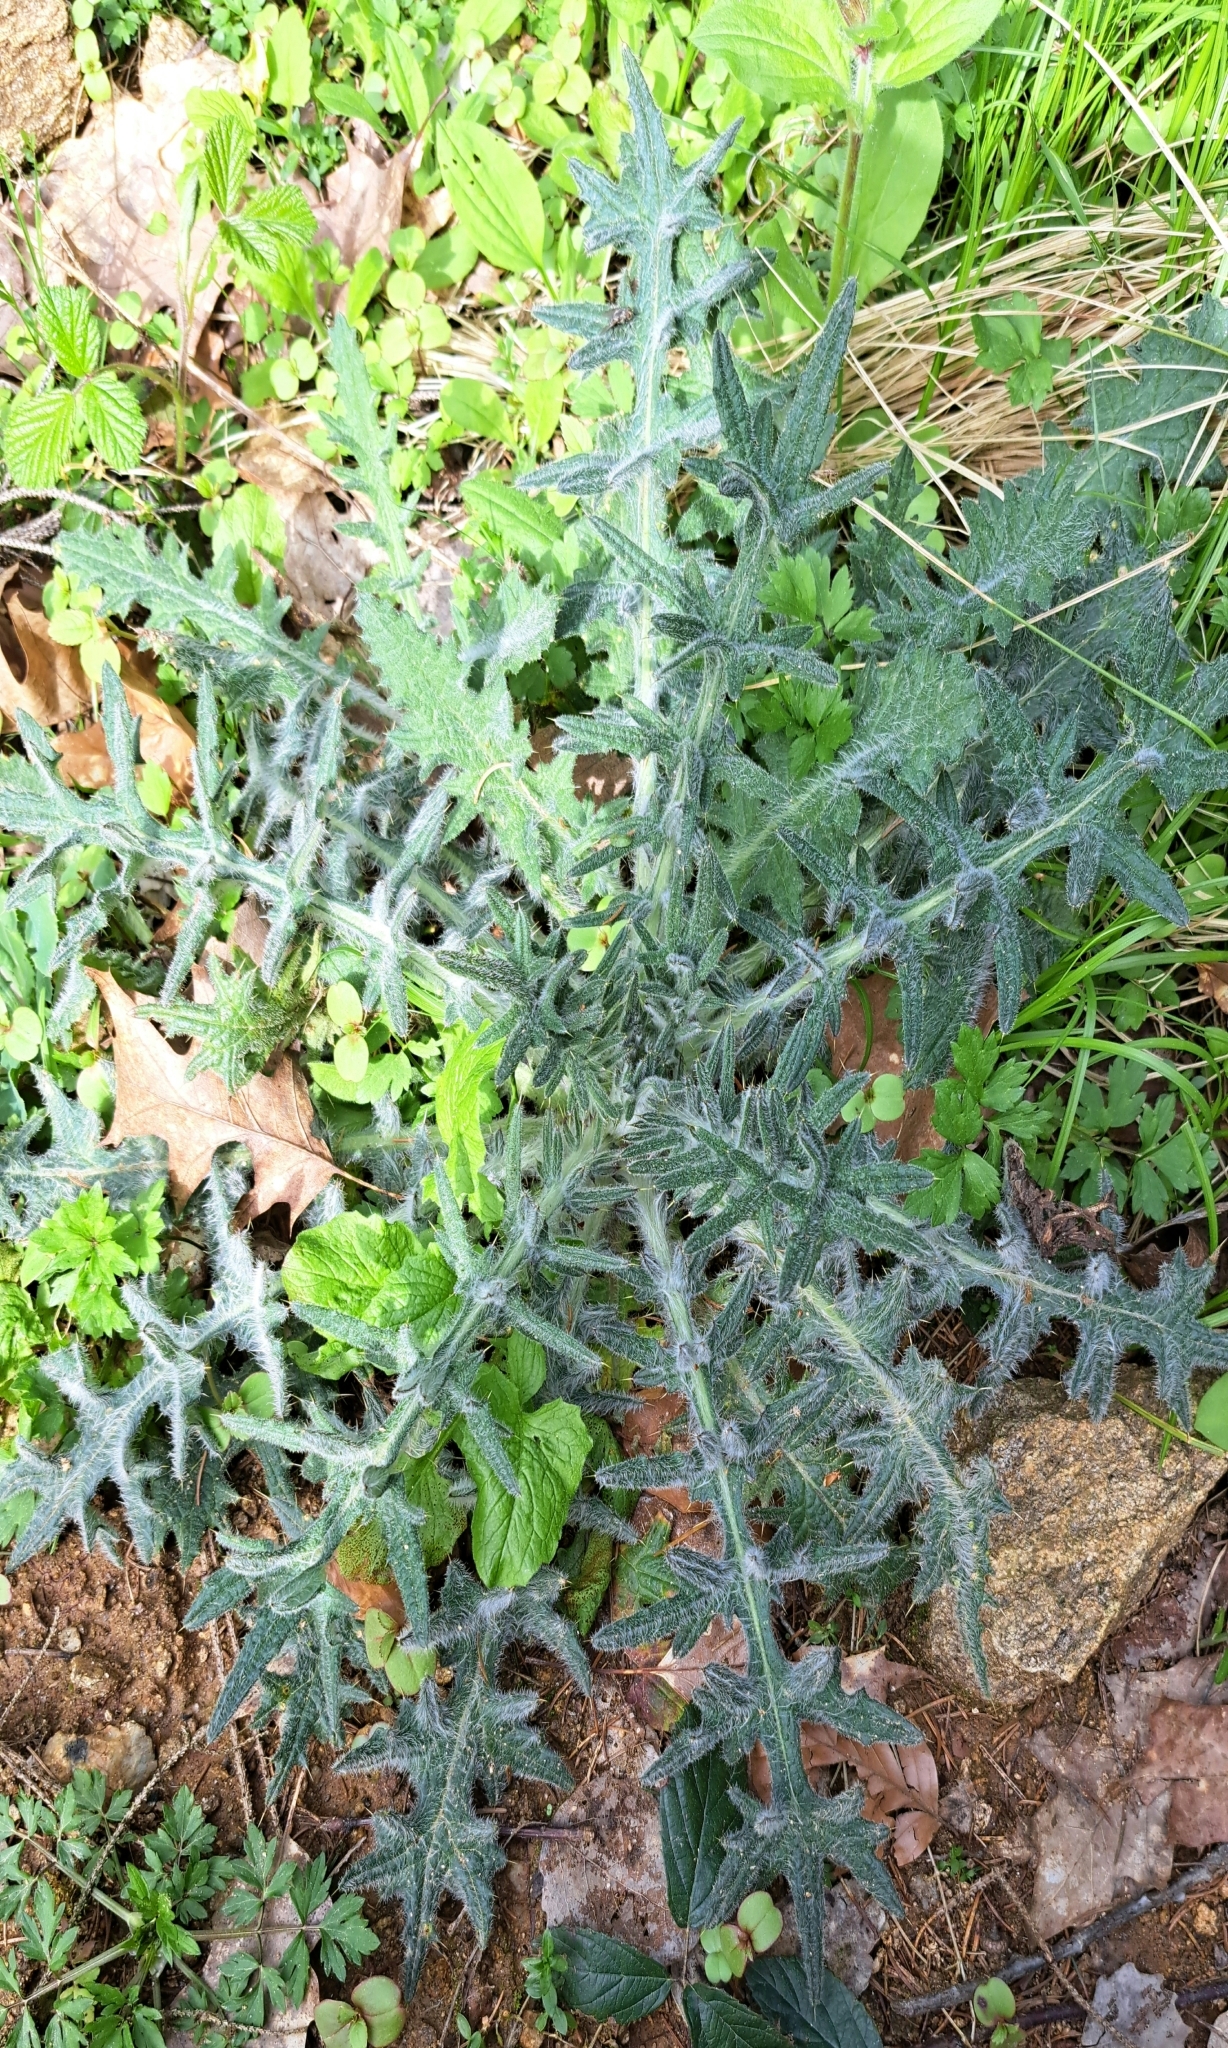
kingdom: Plantae
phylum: Tracheophyta
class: Magnoliopsida
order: Asterales
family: Asteraceae
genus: Cirsium
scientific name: Cirsium vulgare
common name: Bull thistle
